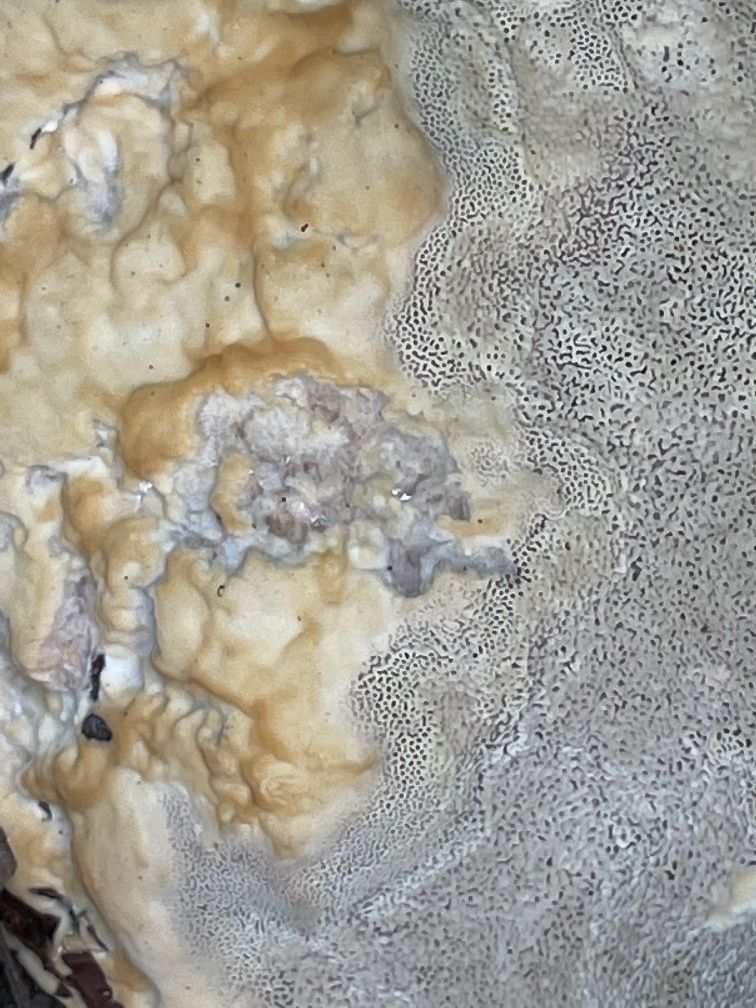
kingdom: Fungi
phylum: Basidiomycota
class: Agaricomycetes
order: Polyporales
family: Polyporaceae
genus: Ganoderma
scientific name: Ganoderma polychromum
